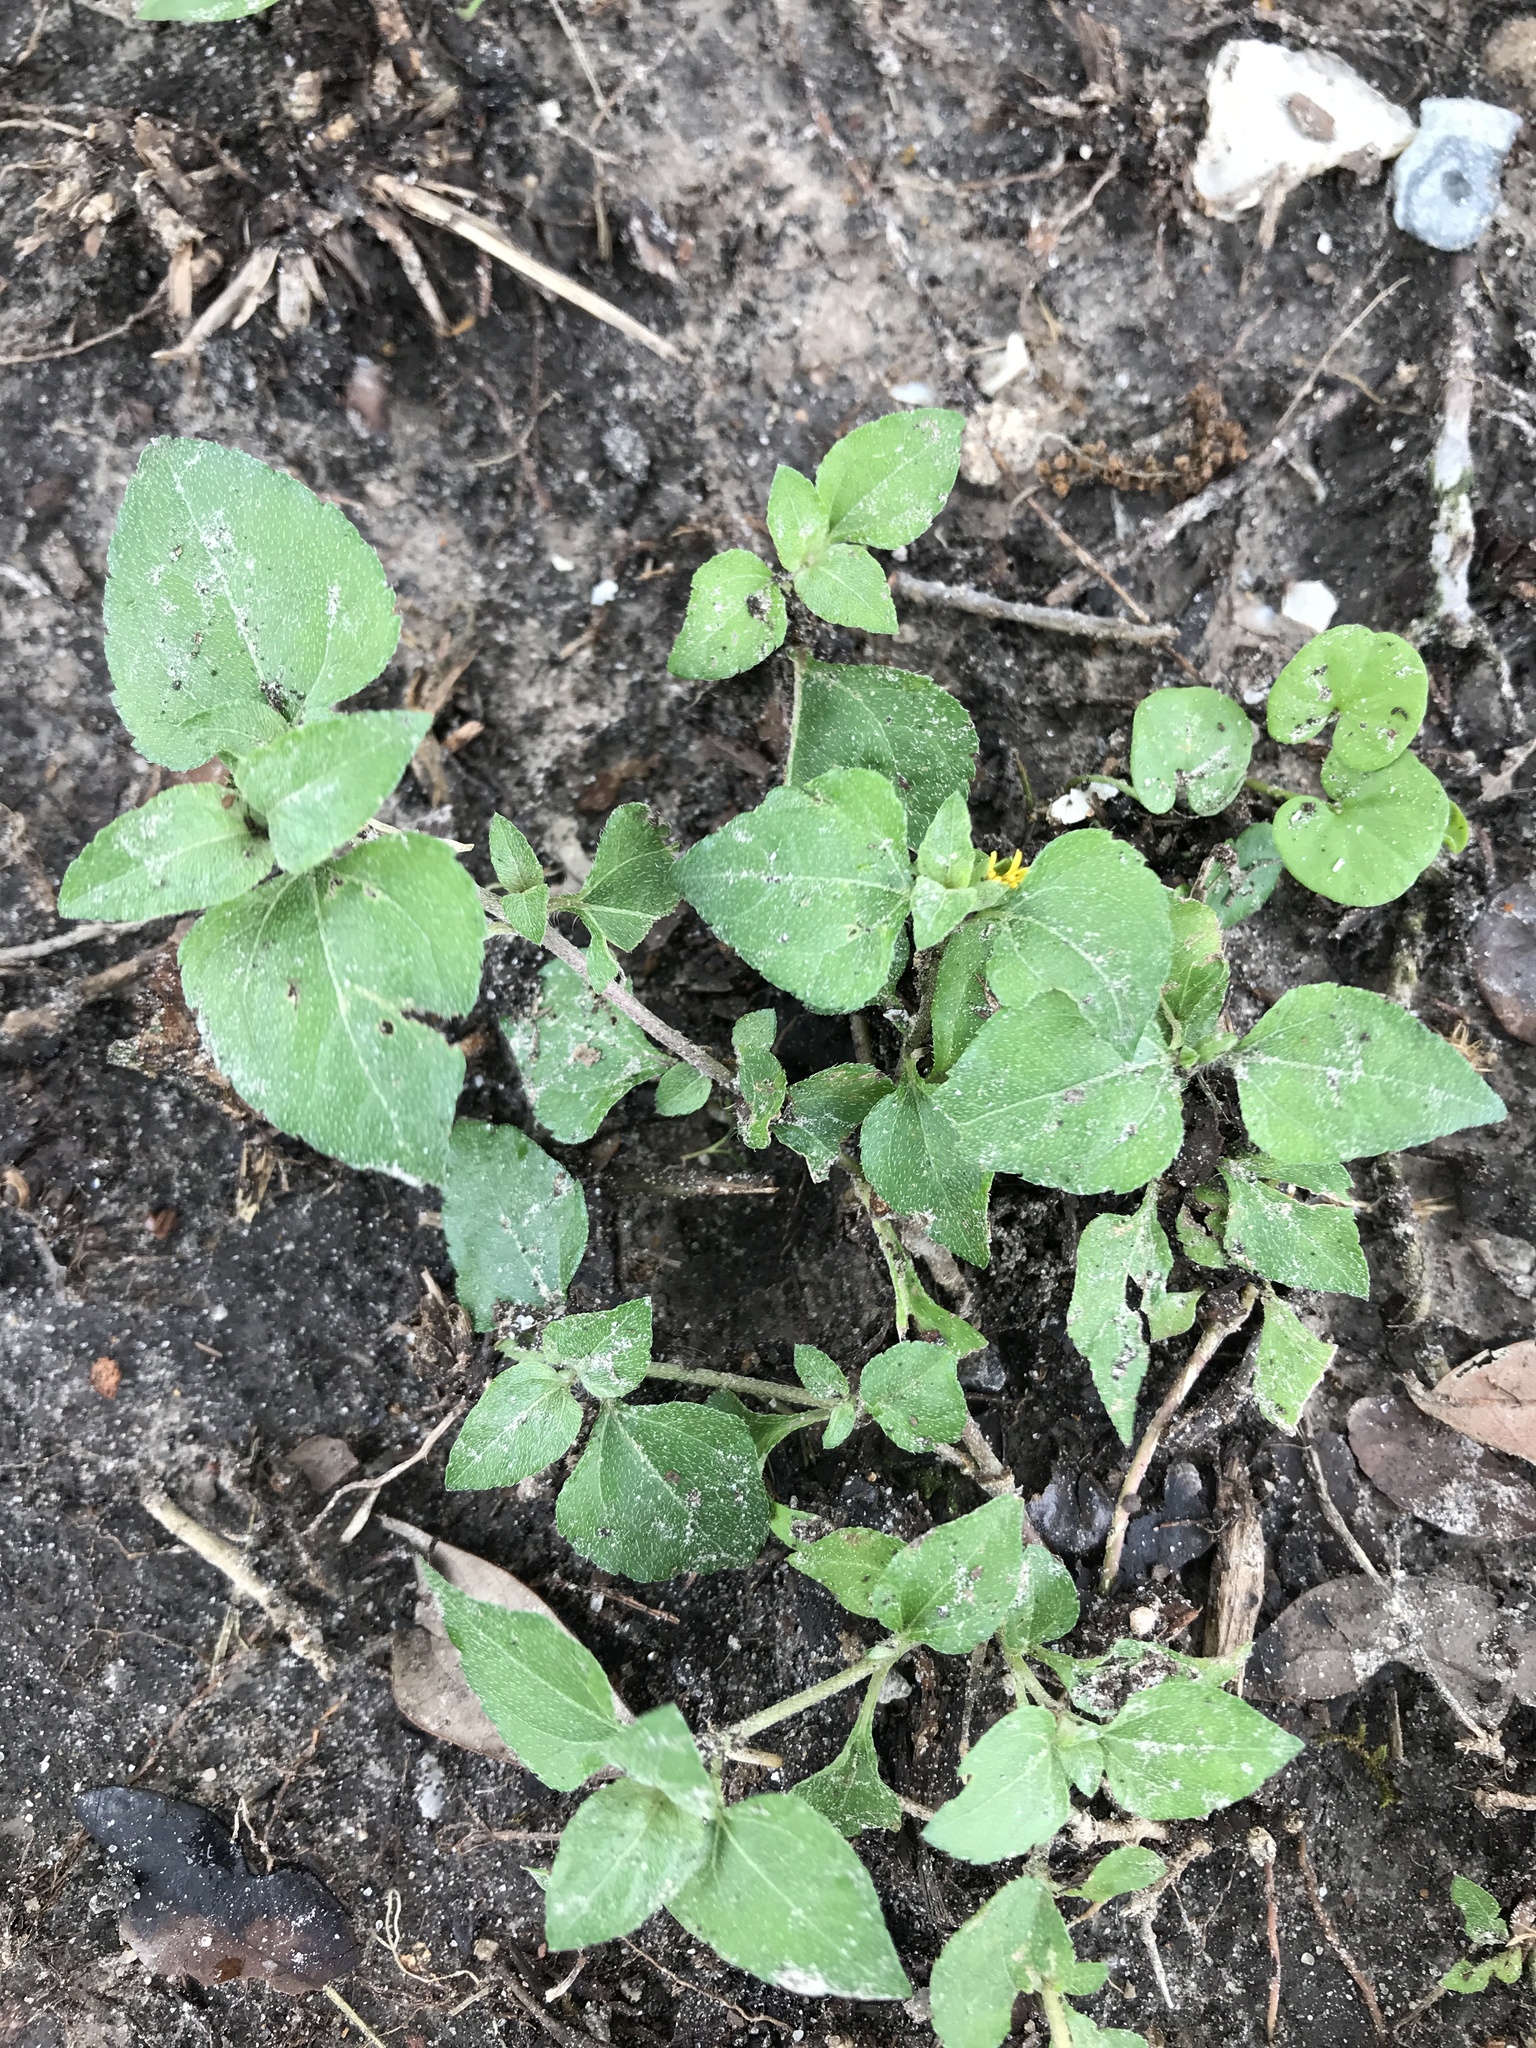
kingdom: Plantae
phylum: Tracheophyta
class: Magnoliopsida
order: Asterales
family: Asteraceae
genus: Calyptocarpus
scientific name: Calyptocarpus vialis
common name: Straggler daisy
